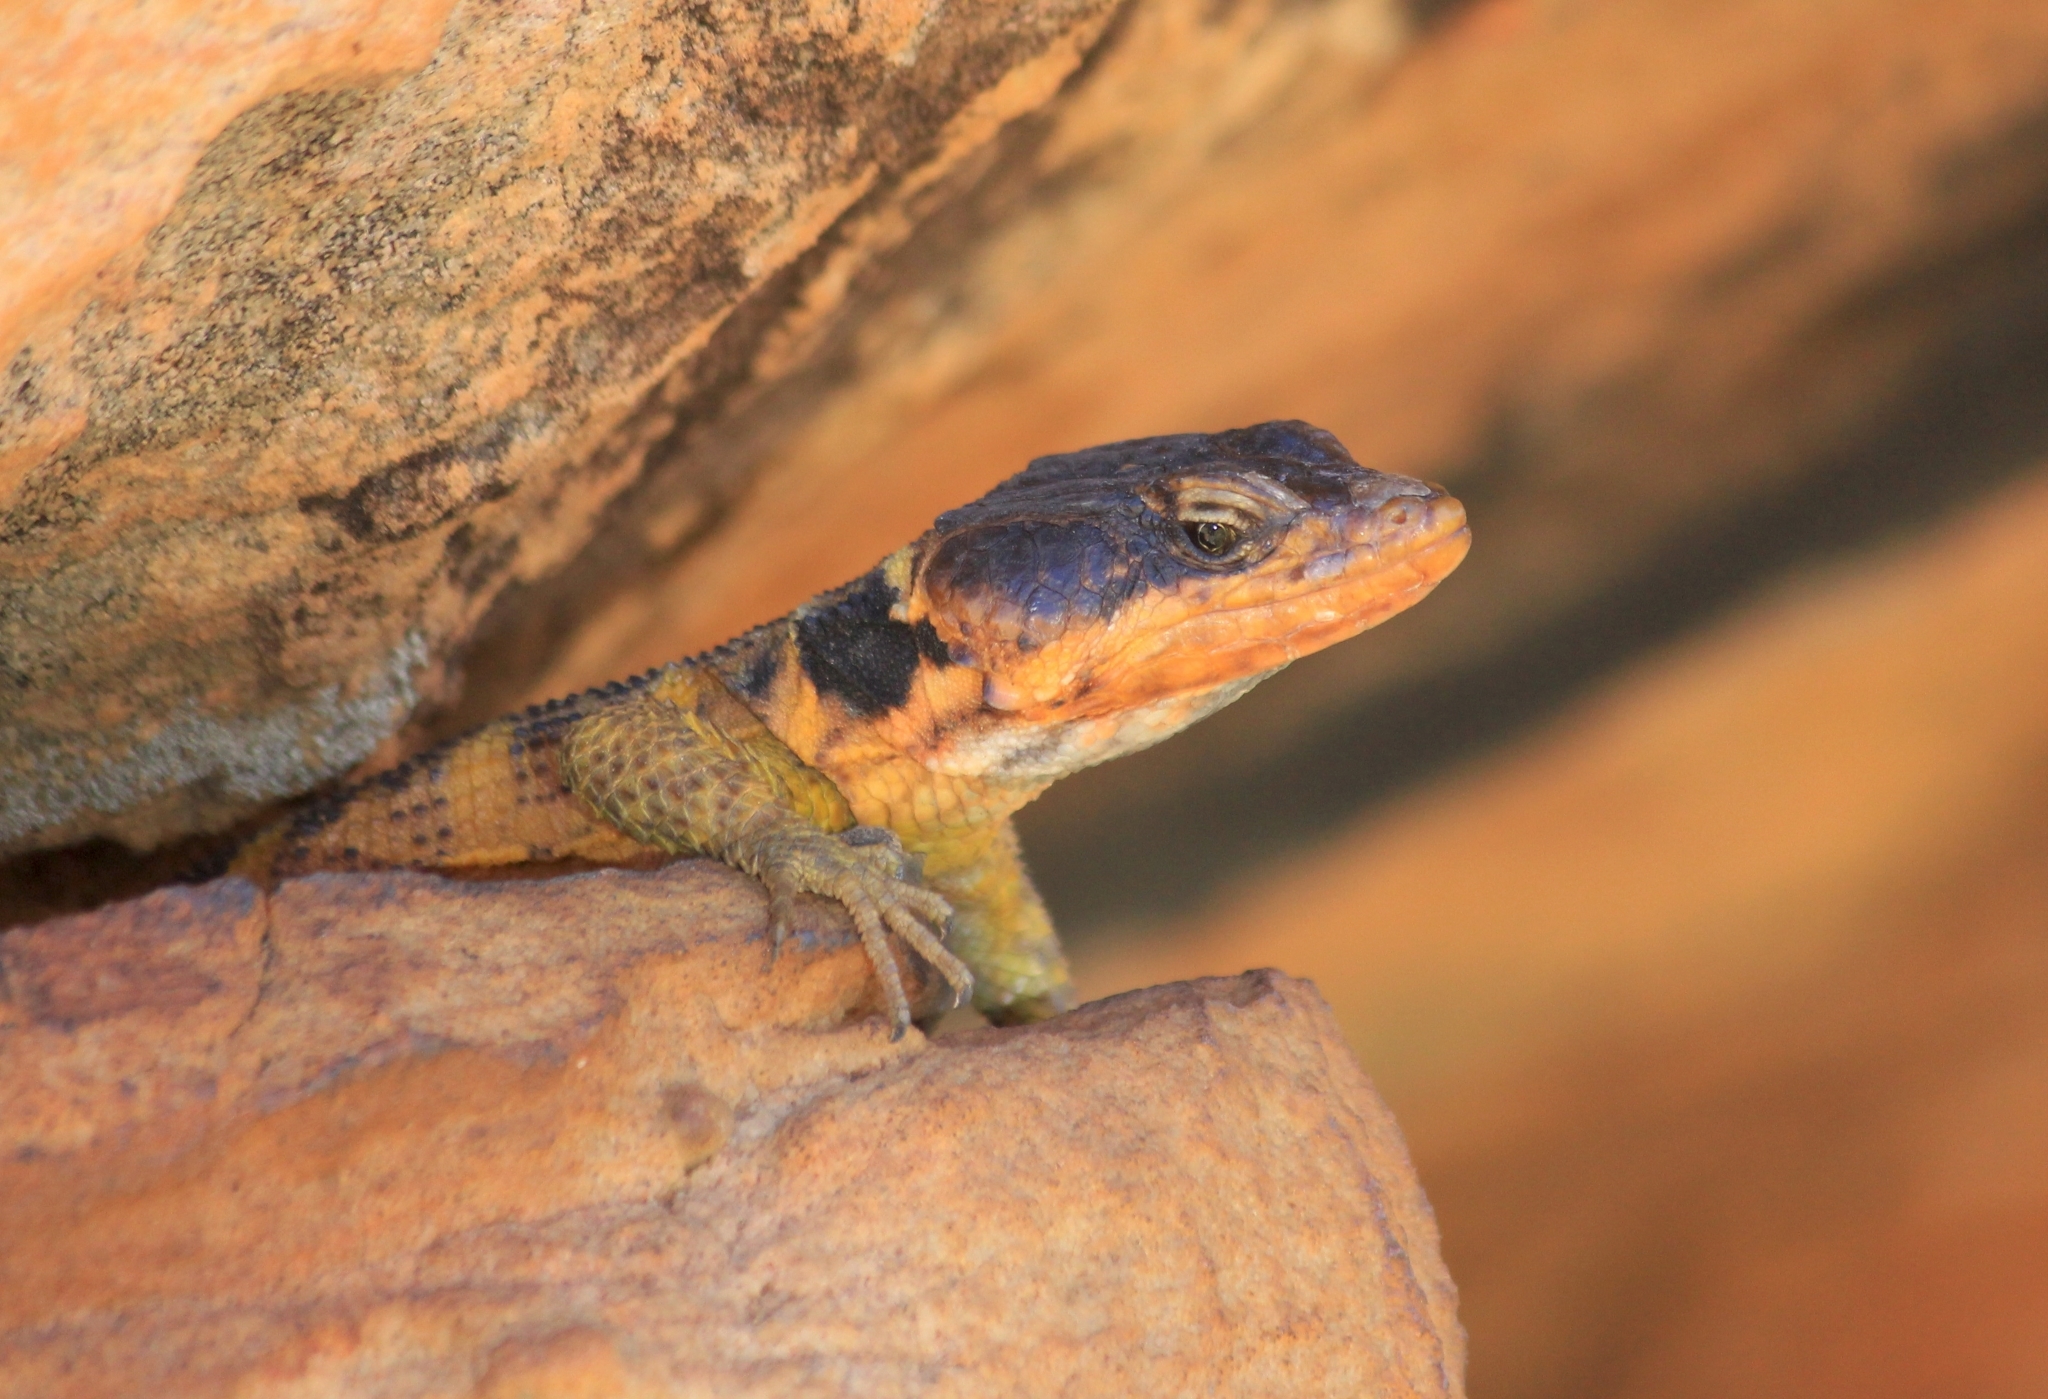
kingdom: Animalia
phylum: Chordata
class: Squamata
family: Cordylidae
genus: Pseudocordylus
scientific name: Pseudocordylus microlepidotus
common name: Cape crag lizard
